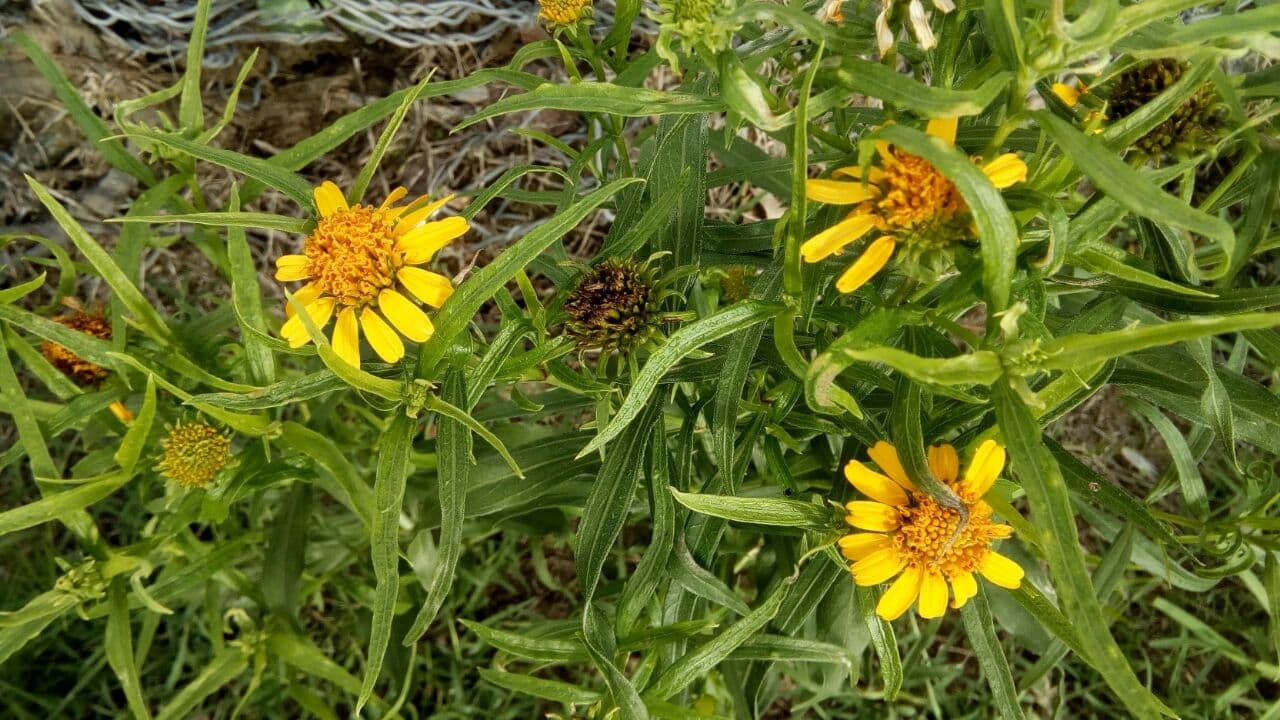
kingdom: Plantae
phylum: Tracheophyta
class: Magnoliopsida
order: Asterales
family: Asteraceae
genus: Pascalia
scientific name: Pascalia glauca
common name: Beach creeping oxeye
